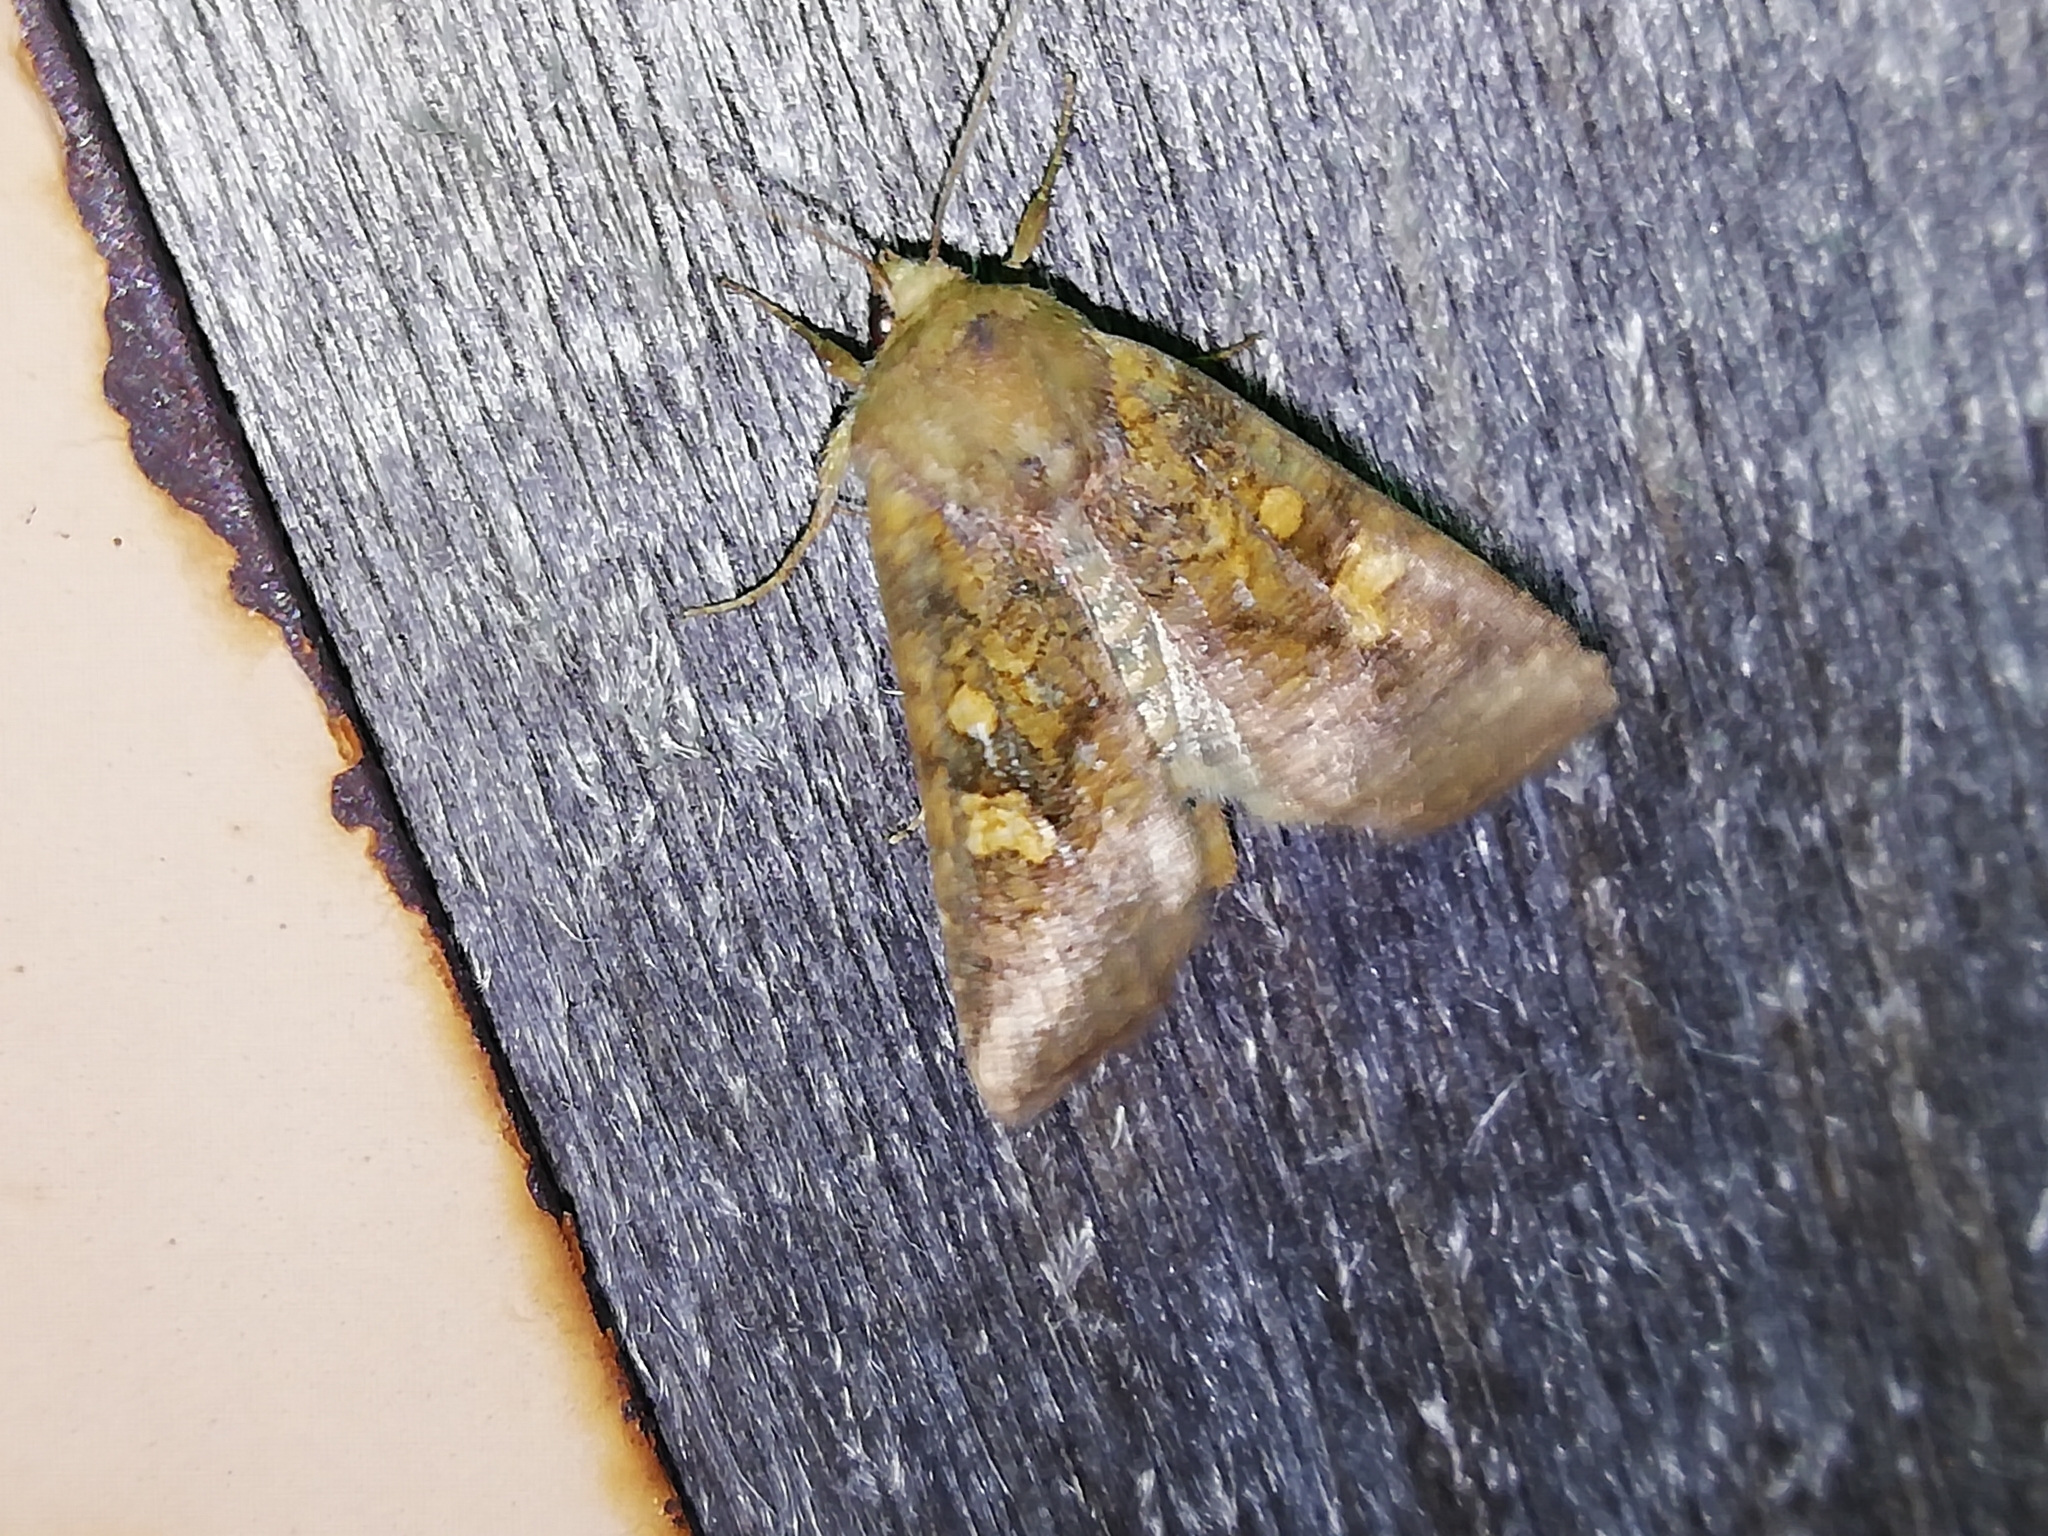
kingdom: Animalia
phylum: Arthropoda
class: Insecta
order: Lepidoptera
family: Noctuidae
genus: Amphipoea
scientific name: Amphipoea fucosa
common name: Saltern ear
